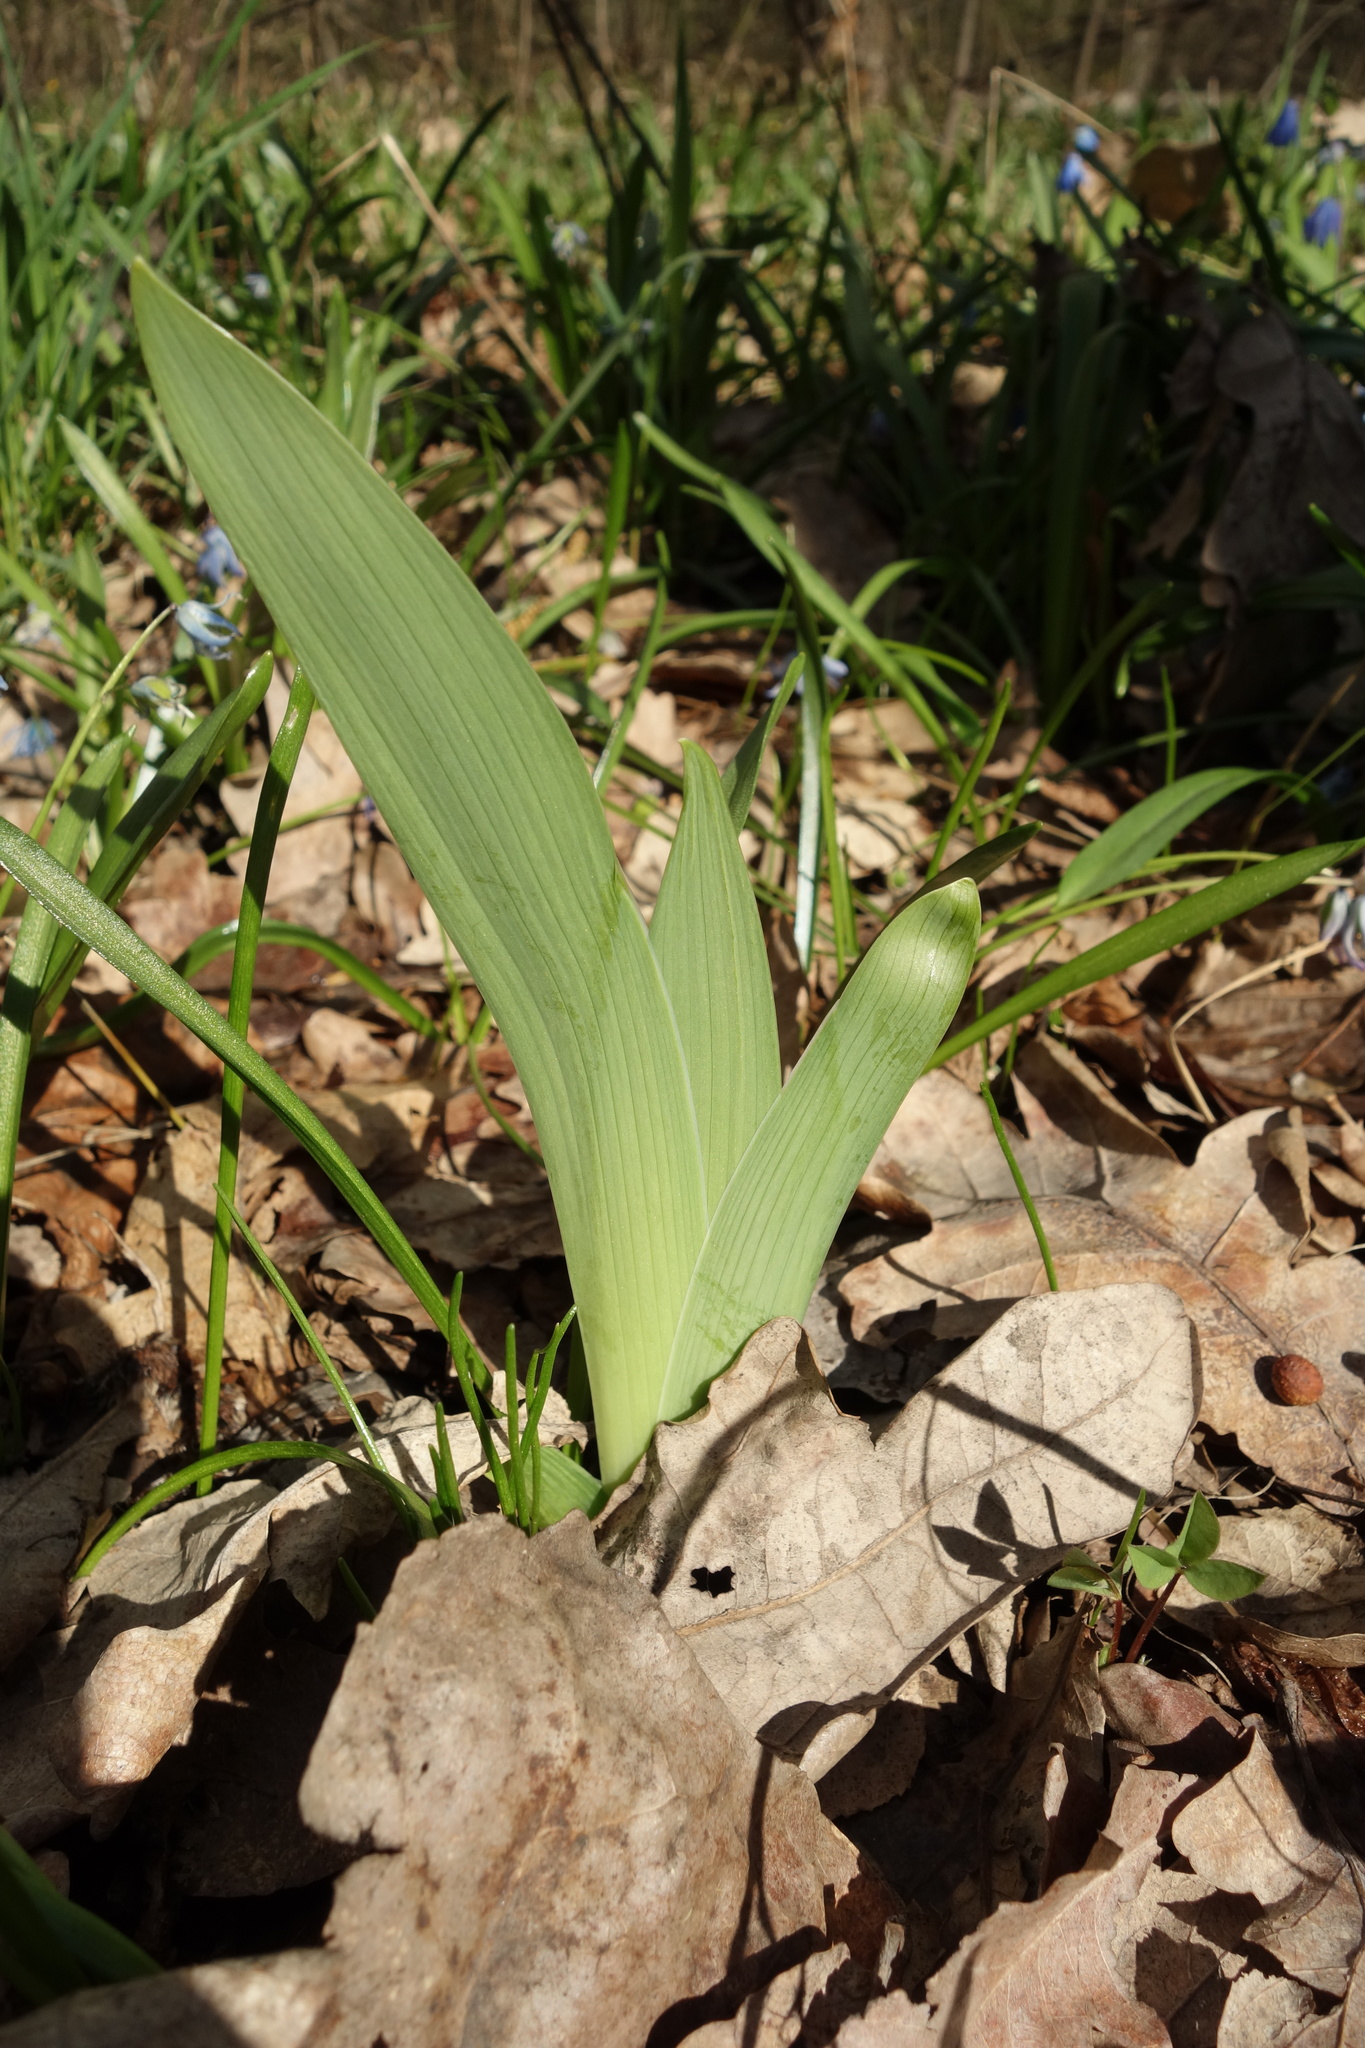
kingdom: Plantae
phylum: Tracheophyta
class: Liliopsida
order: Asparagales
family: Iridaceae
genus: Iris
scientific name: Iris aphylla
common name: Stool iris
